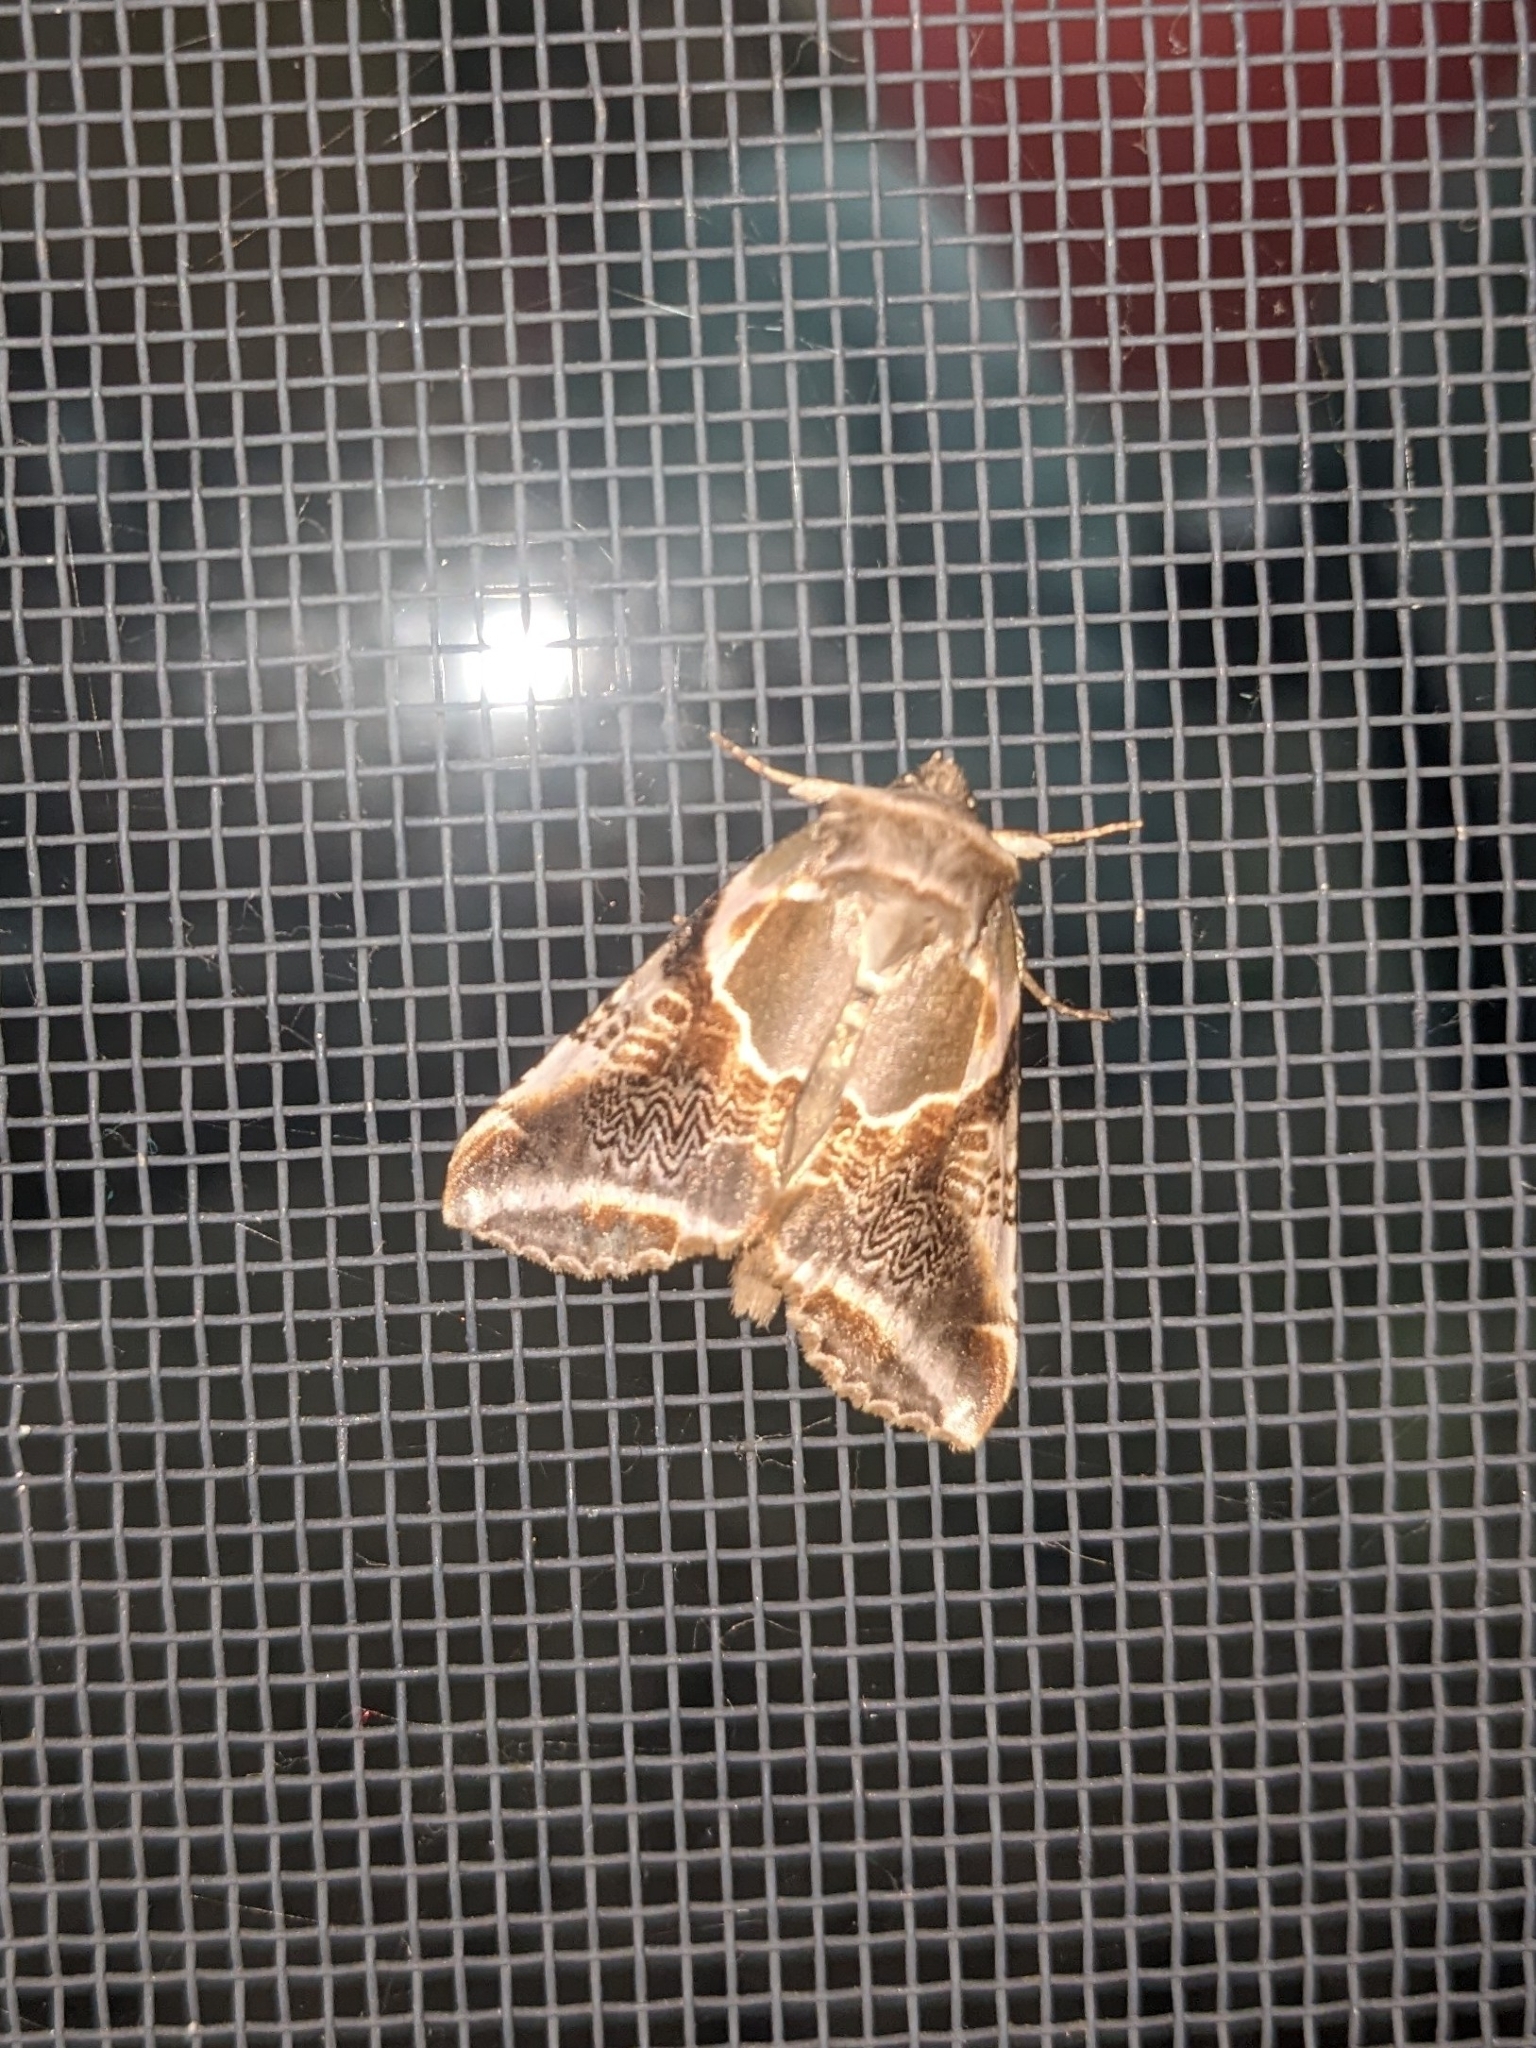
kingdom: Animalia
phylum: Arthropoda
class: Insecta
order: Lepidoptera
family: Drepanidae
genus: Habrosyne
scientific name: Habrosyne scripta
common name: Lettered habrosyne moth
